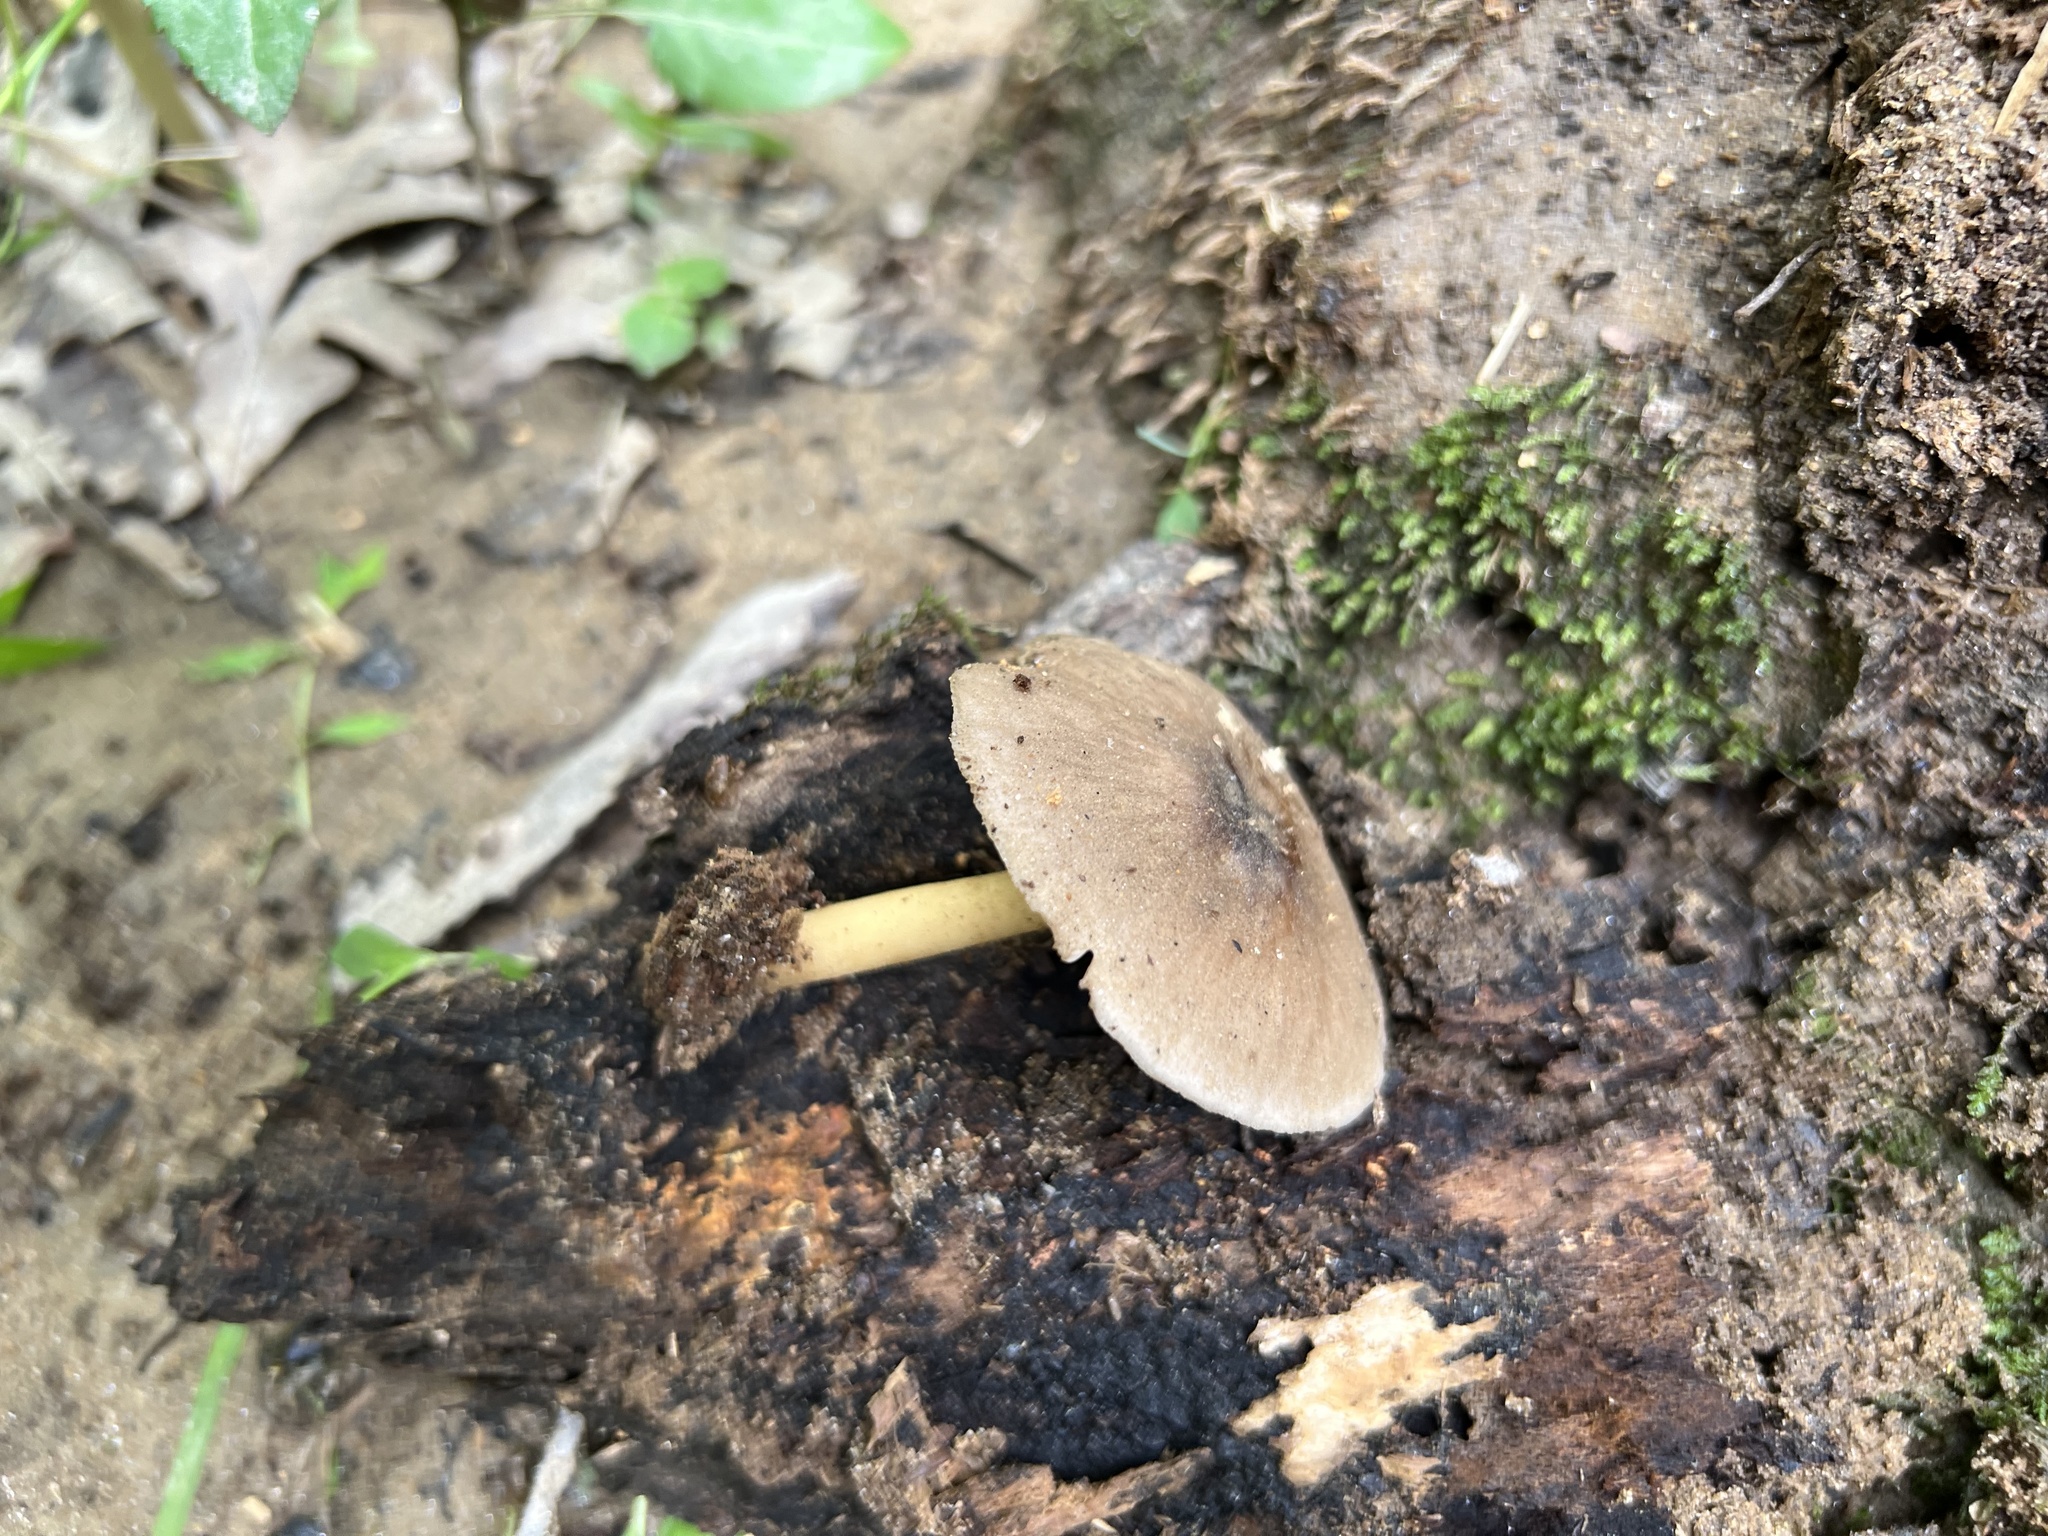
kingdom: Fungi
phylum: Basidiomycota
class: Agaricomycetes
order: Agaricales
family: Pluteaceae
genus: Pluteus
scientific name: Pluteus romellii
